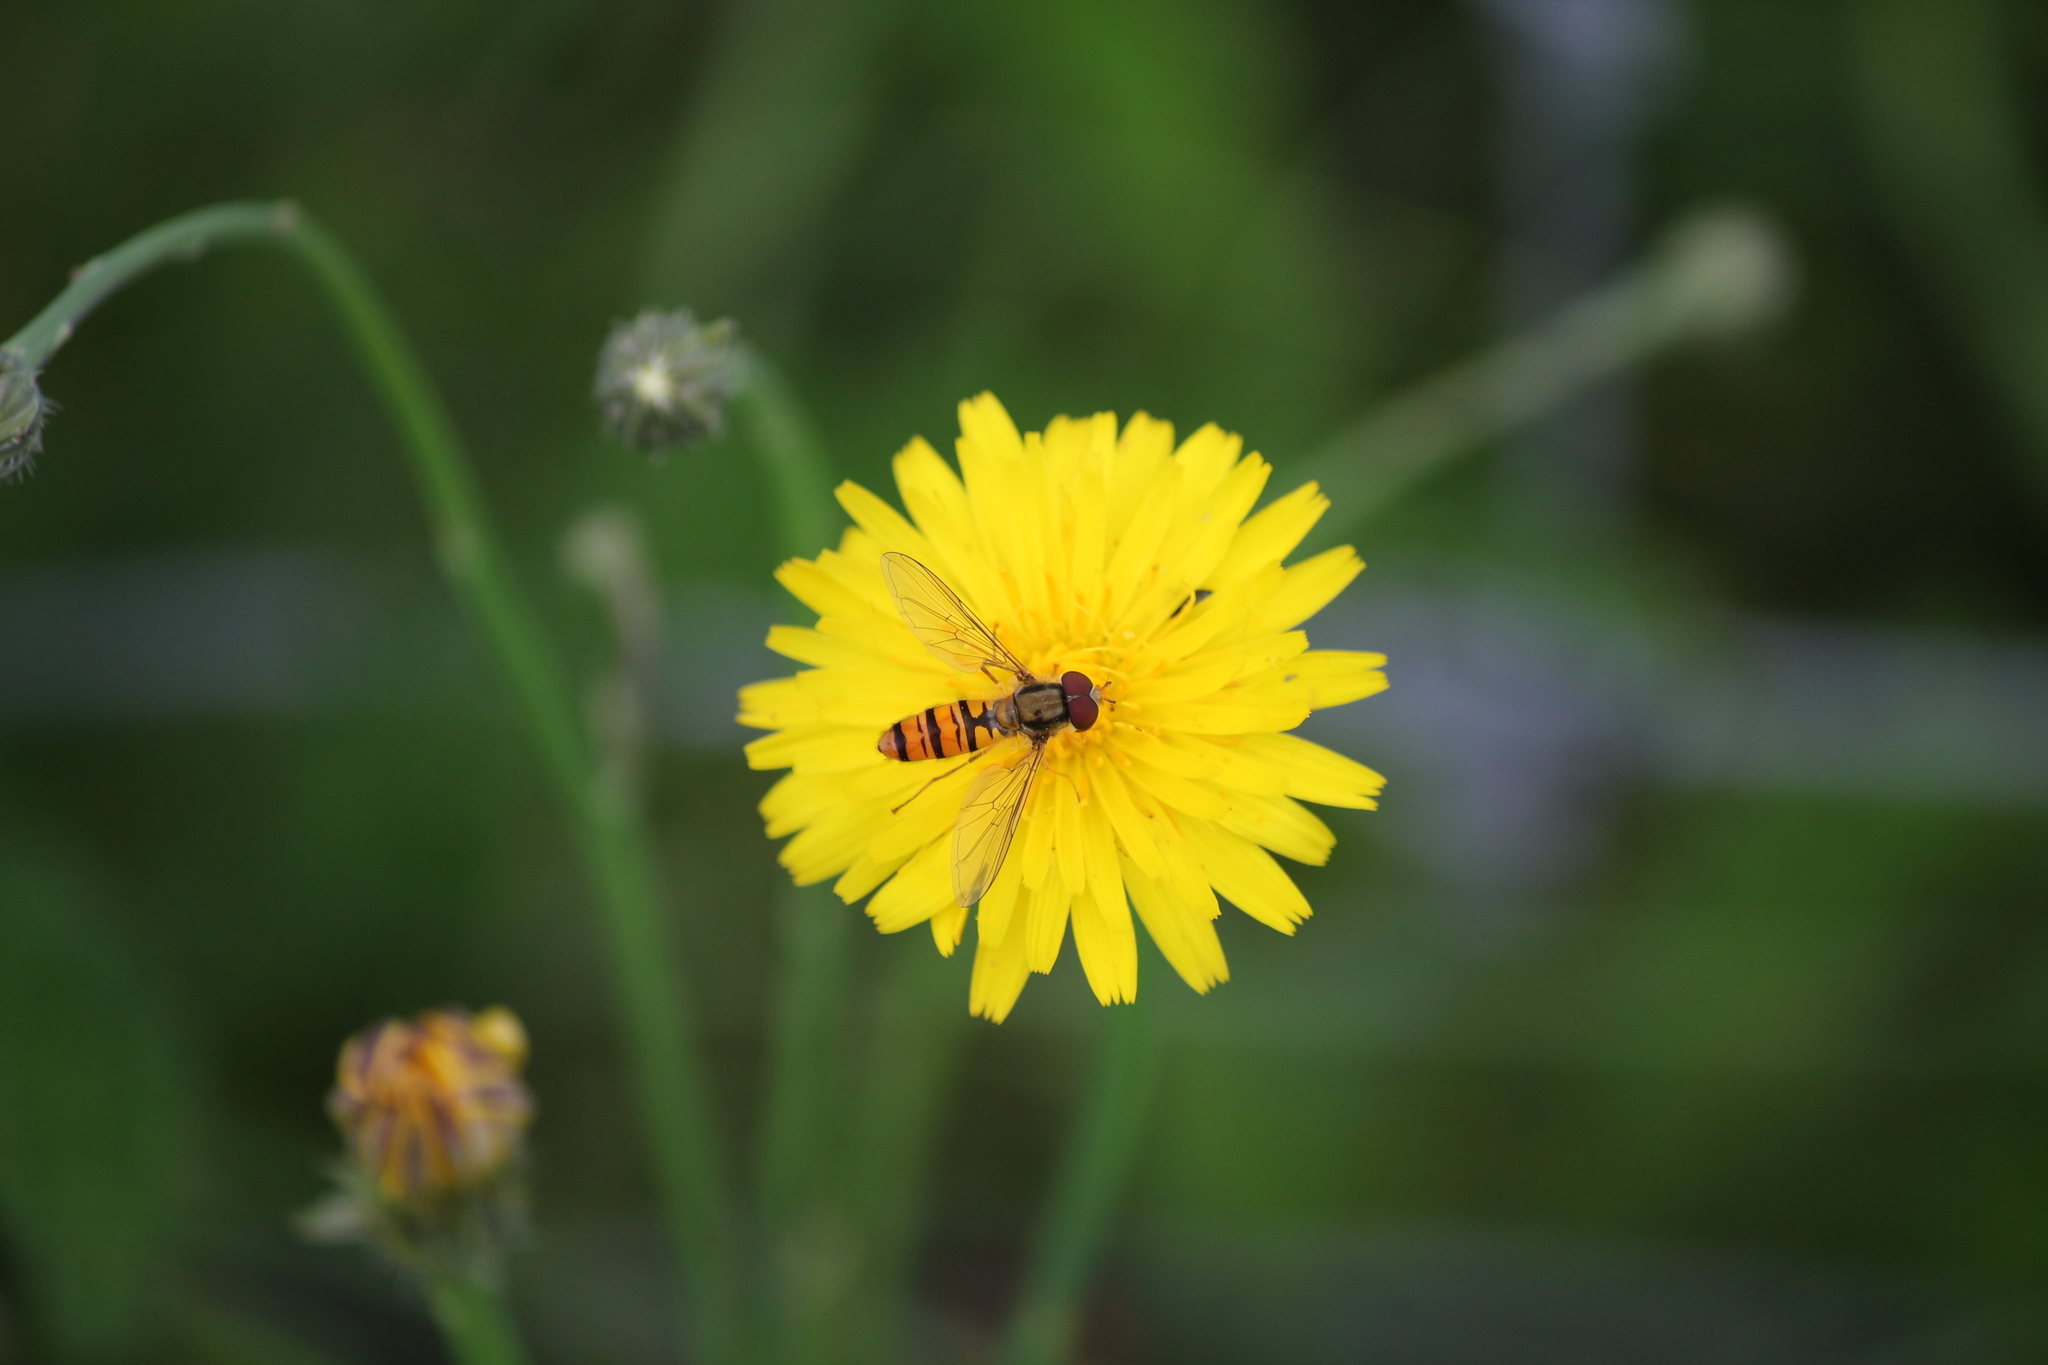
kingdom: Animalia
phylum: Arthropoda
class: Insecta
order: Diptera
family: Syrphidae
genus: Episyrphus
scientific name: Episyrphus balteatus
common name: Marmalade hoverfly
